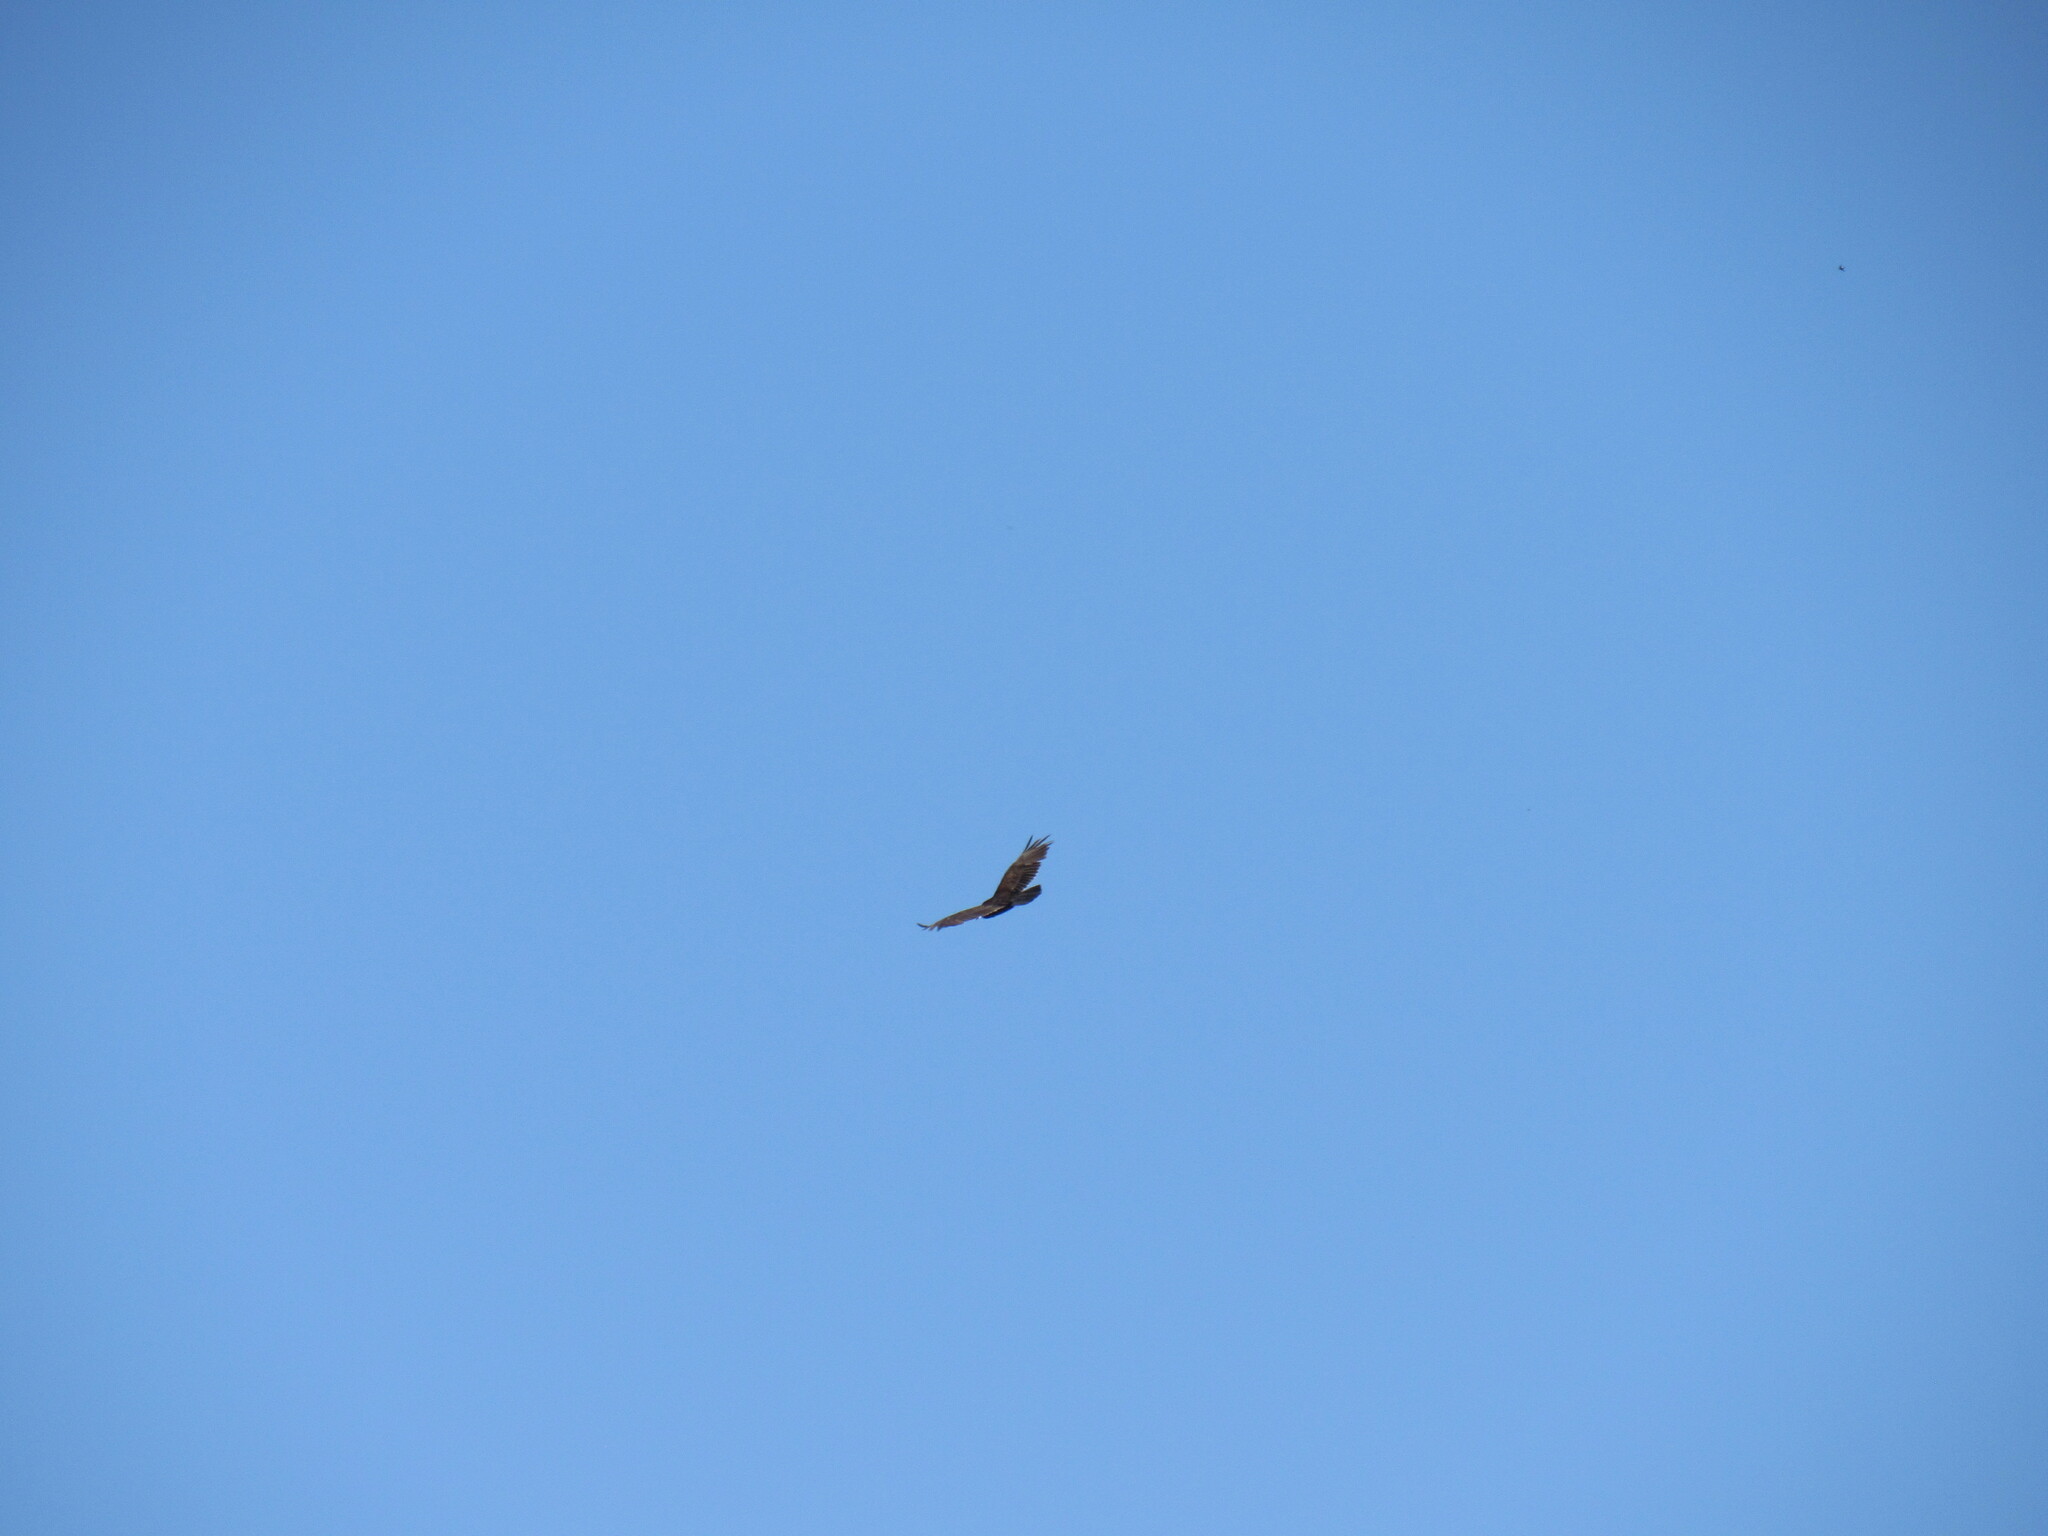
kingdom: Animalia
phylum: Chordata
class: Aves
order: Accipitriformes
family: Cathartidae
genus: Cathartes
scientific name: Cathartes aura
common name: Turkey vulture
